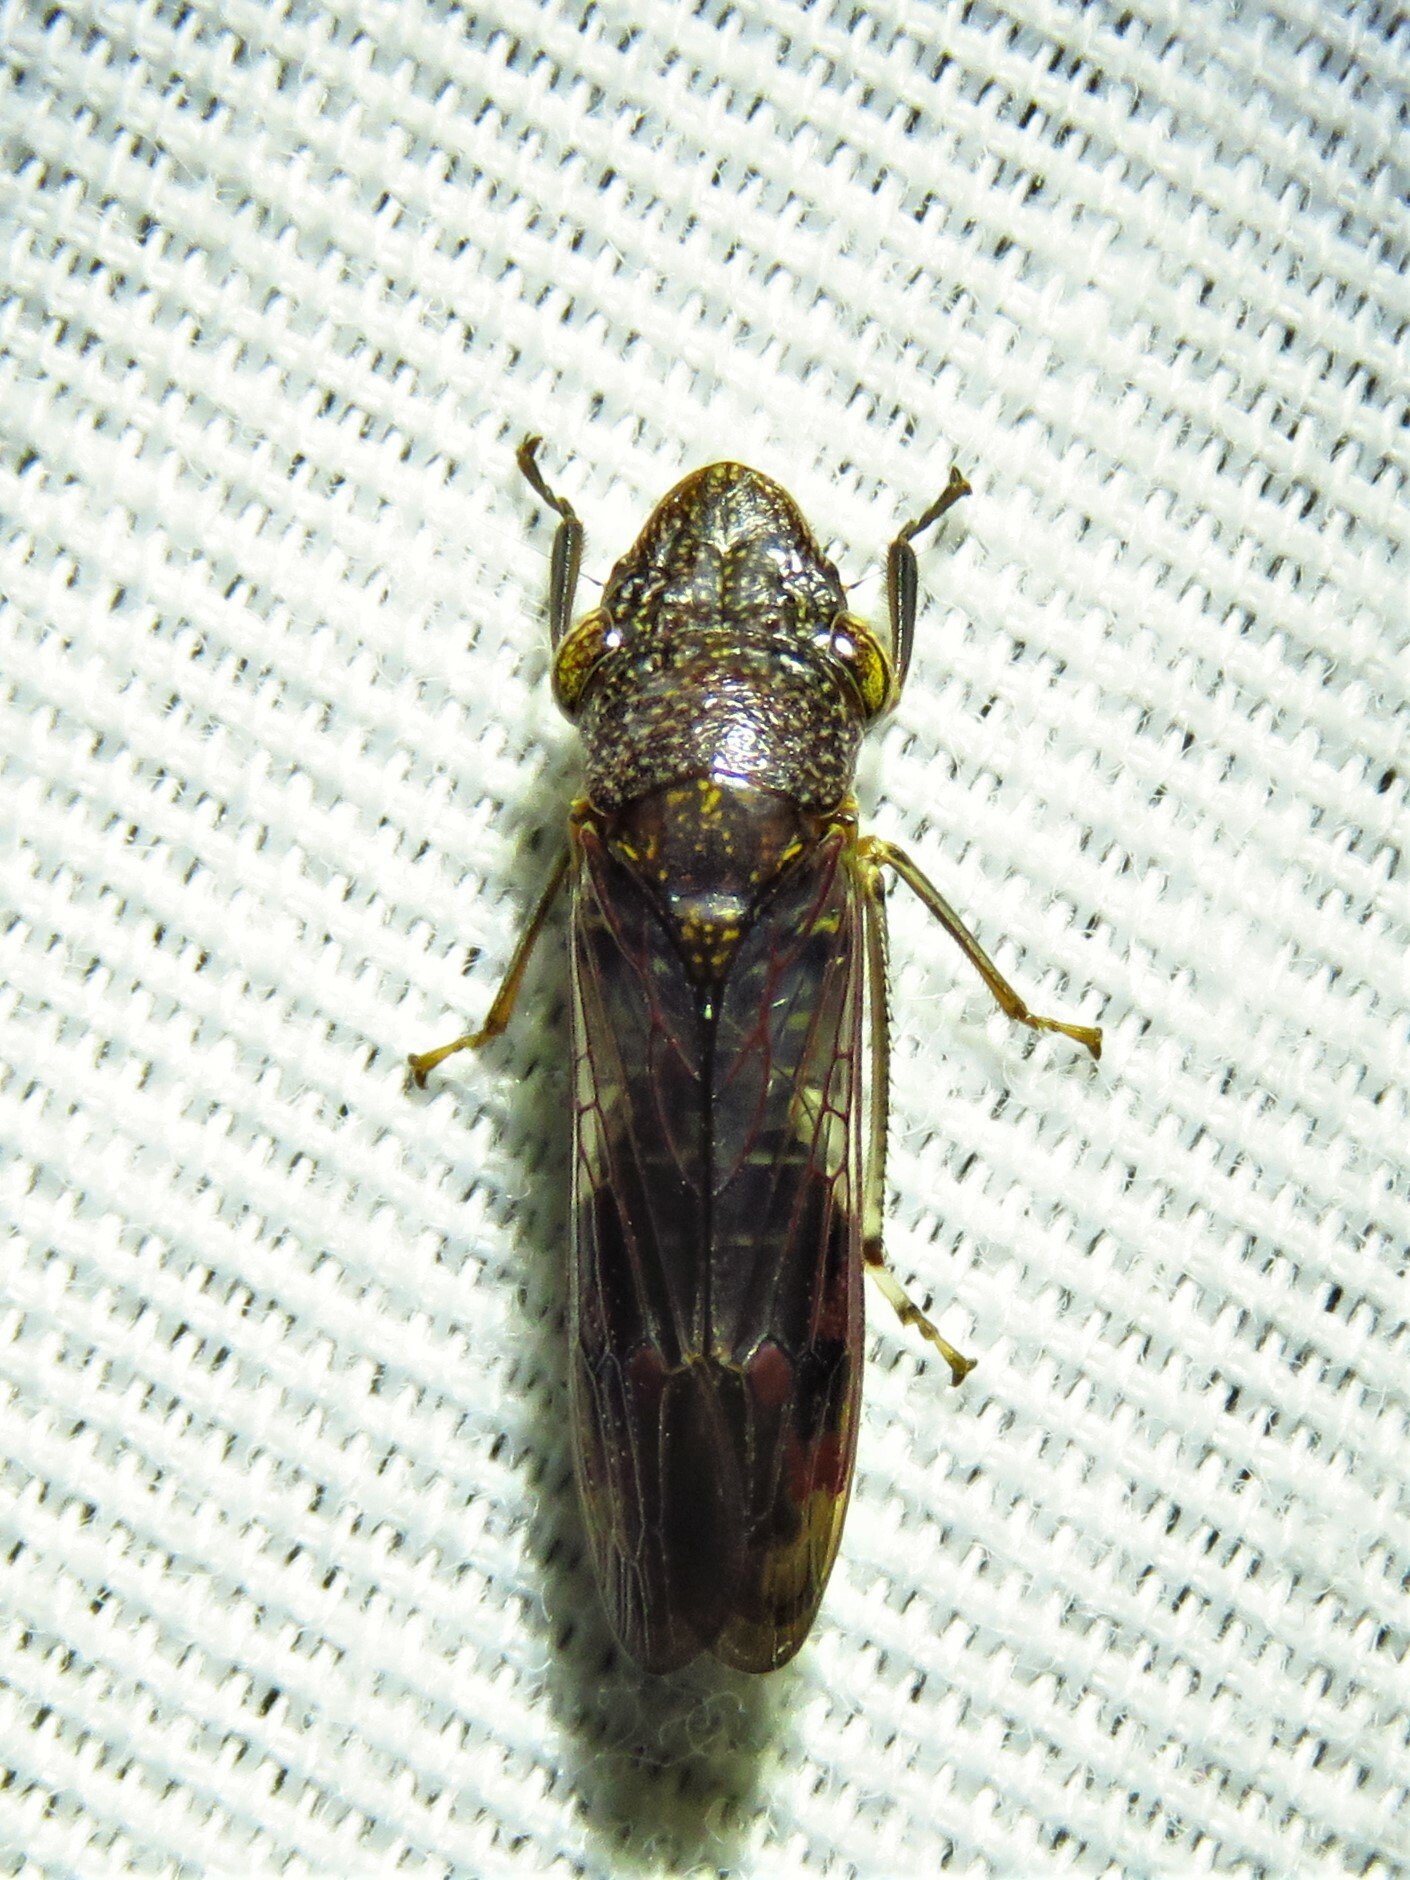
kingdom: Animalia
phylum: Arthropoda
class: Insecta
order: Hemiptera
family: Cicadellidae
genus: Homalodisca
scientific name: Homalodisca vitripennis
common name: Glassy-winged sharpshooter
